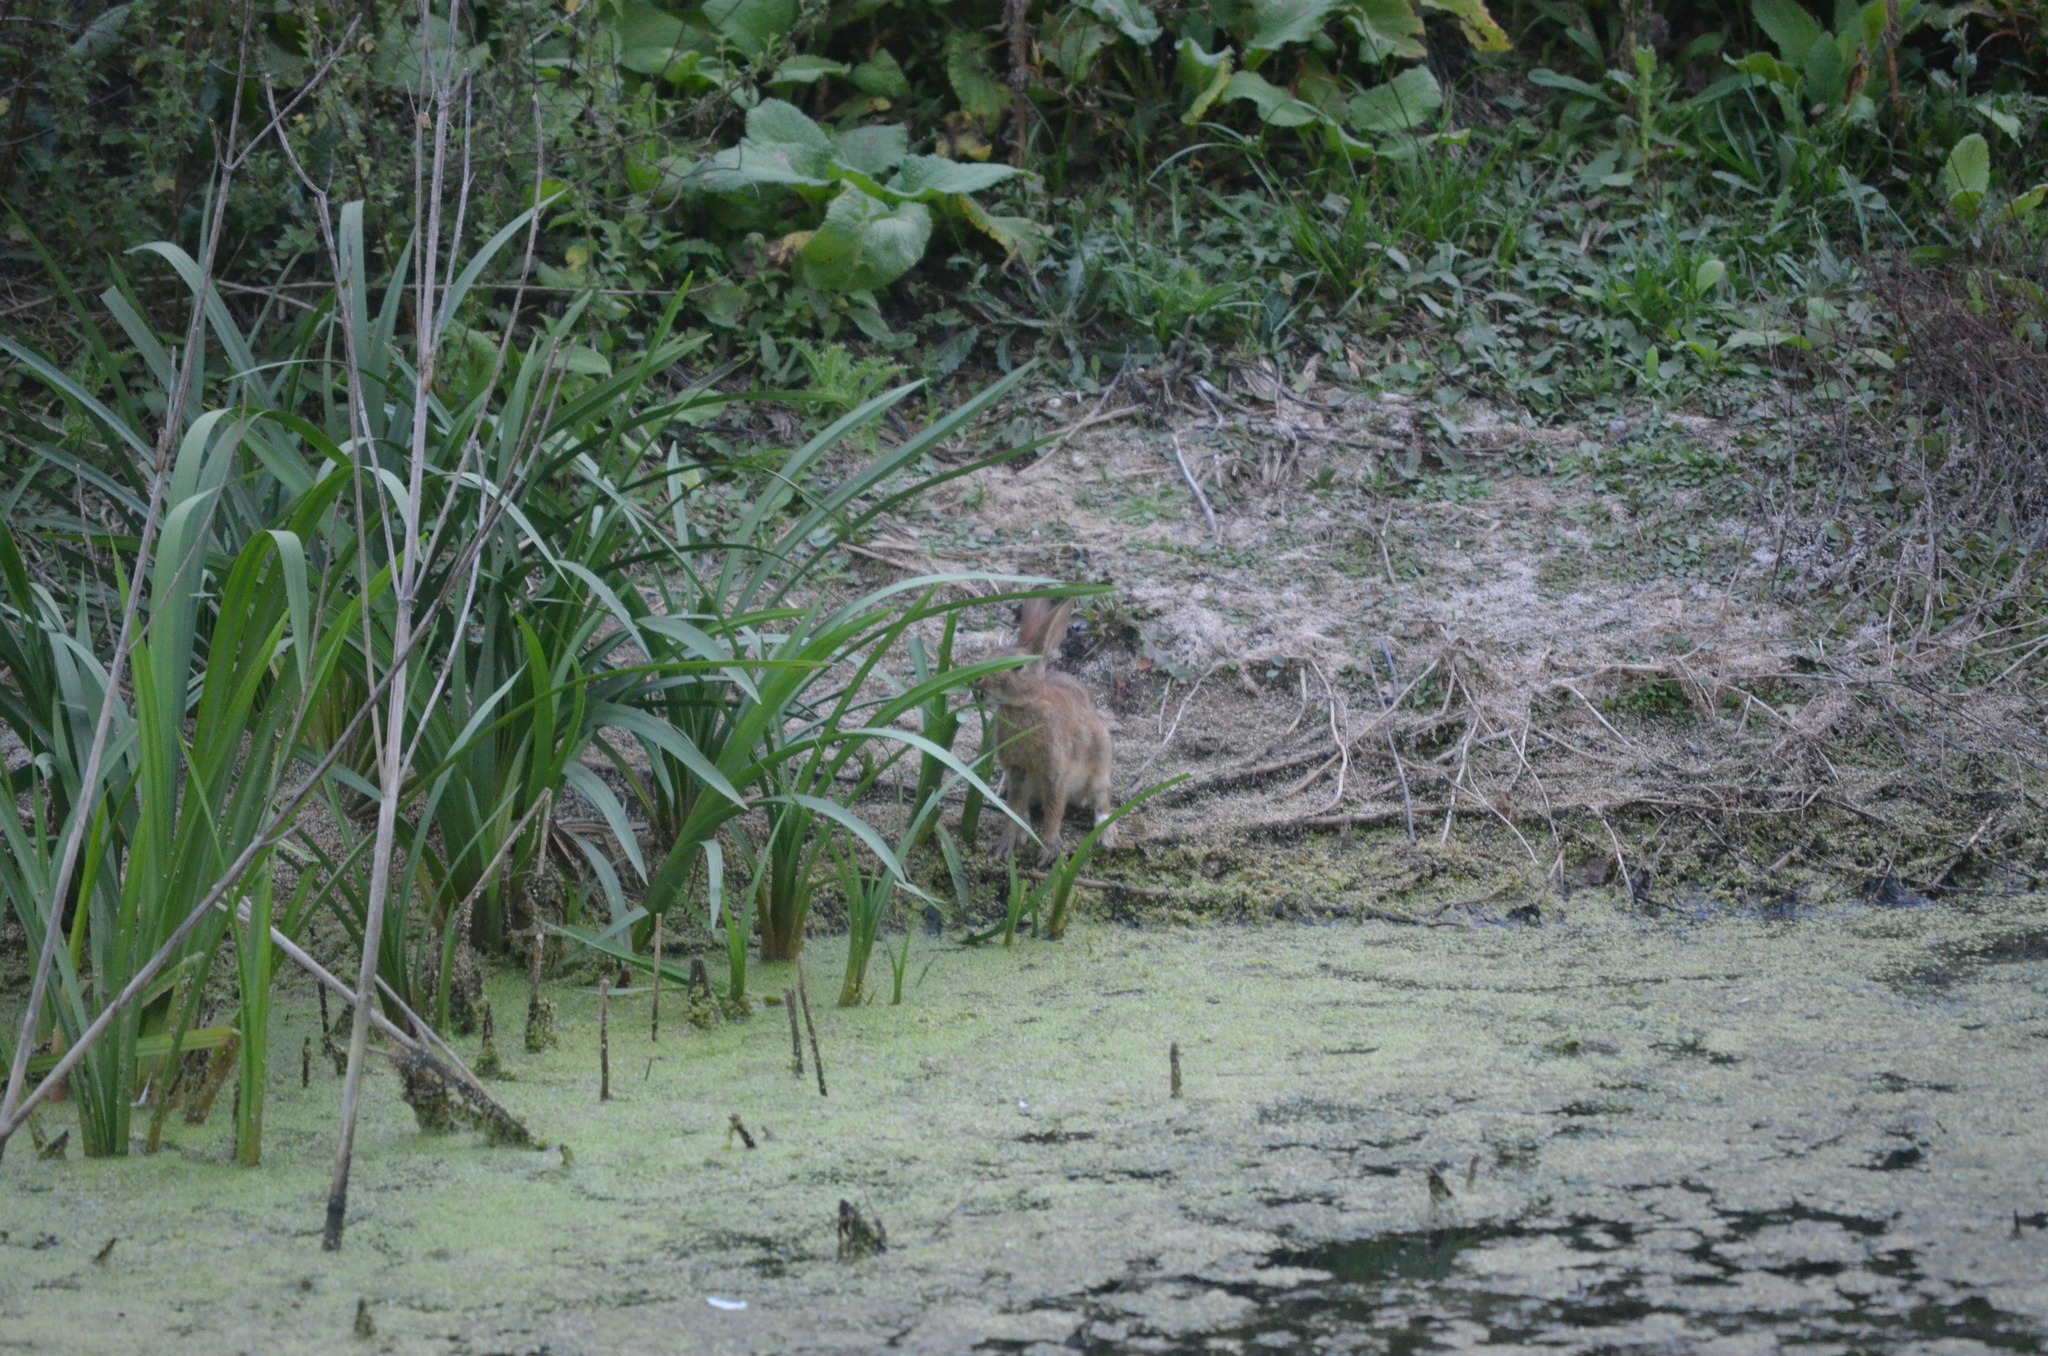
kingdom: Animalia
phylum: Chordata
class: Mammalia
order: Lagomorpha
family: Leporidae
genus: Oryctolagus
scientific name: Oryctolagus cuniculus
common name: European rabbit
